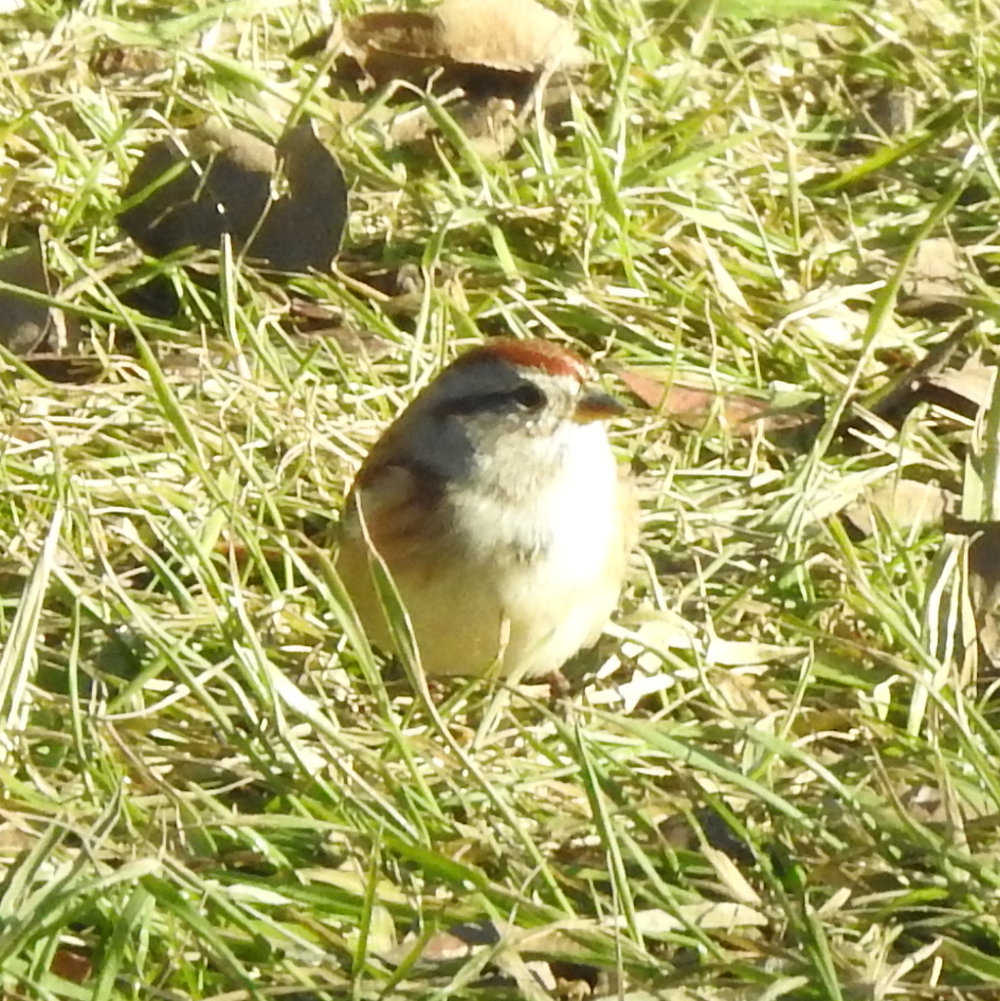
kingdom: Animalia
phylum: Chordata
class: Aves
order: Passeriformes
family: Passerellidae
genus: Spizelloides
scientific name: Spizelloides arborea
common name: American tree sparrow
